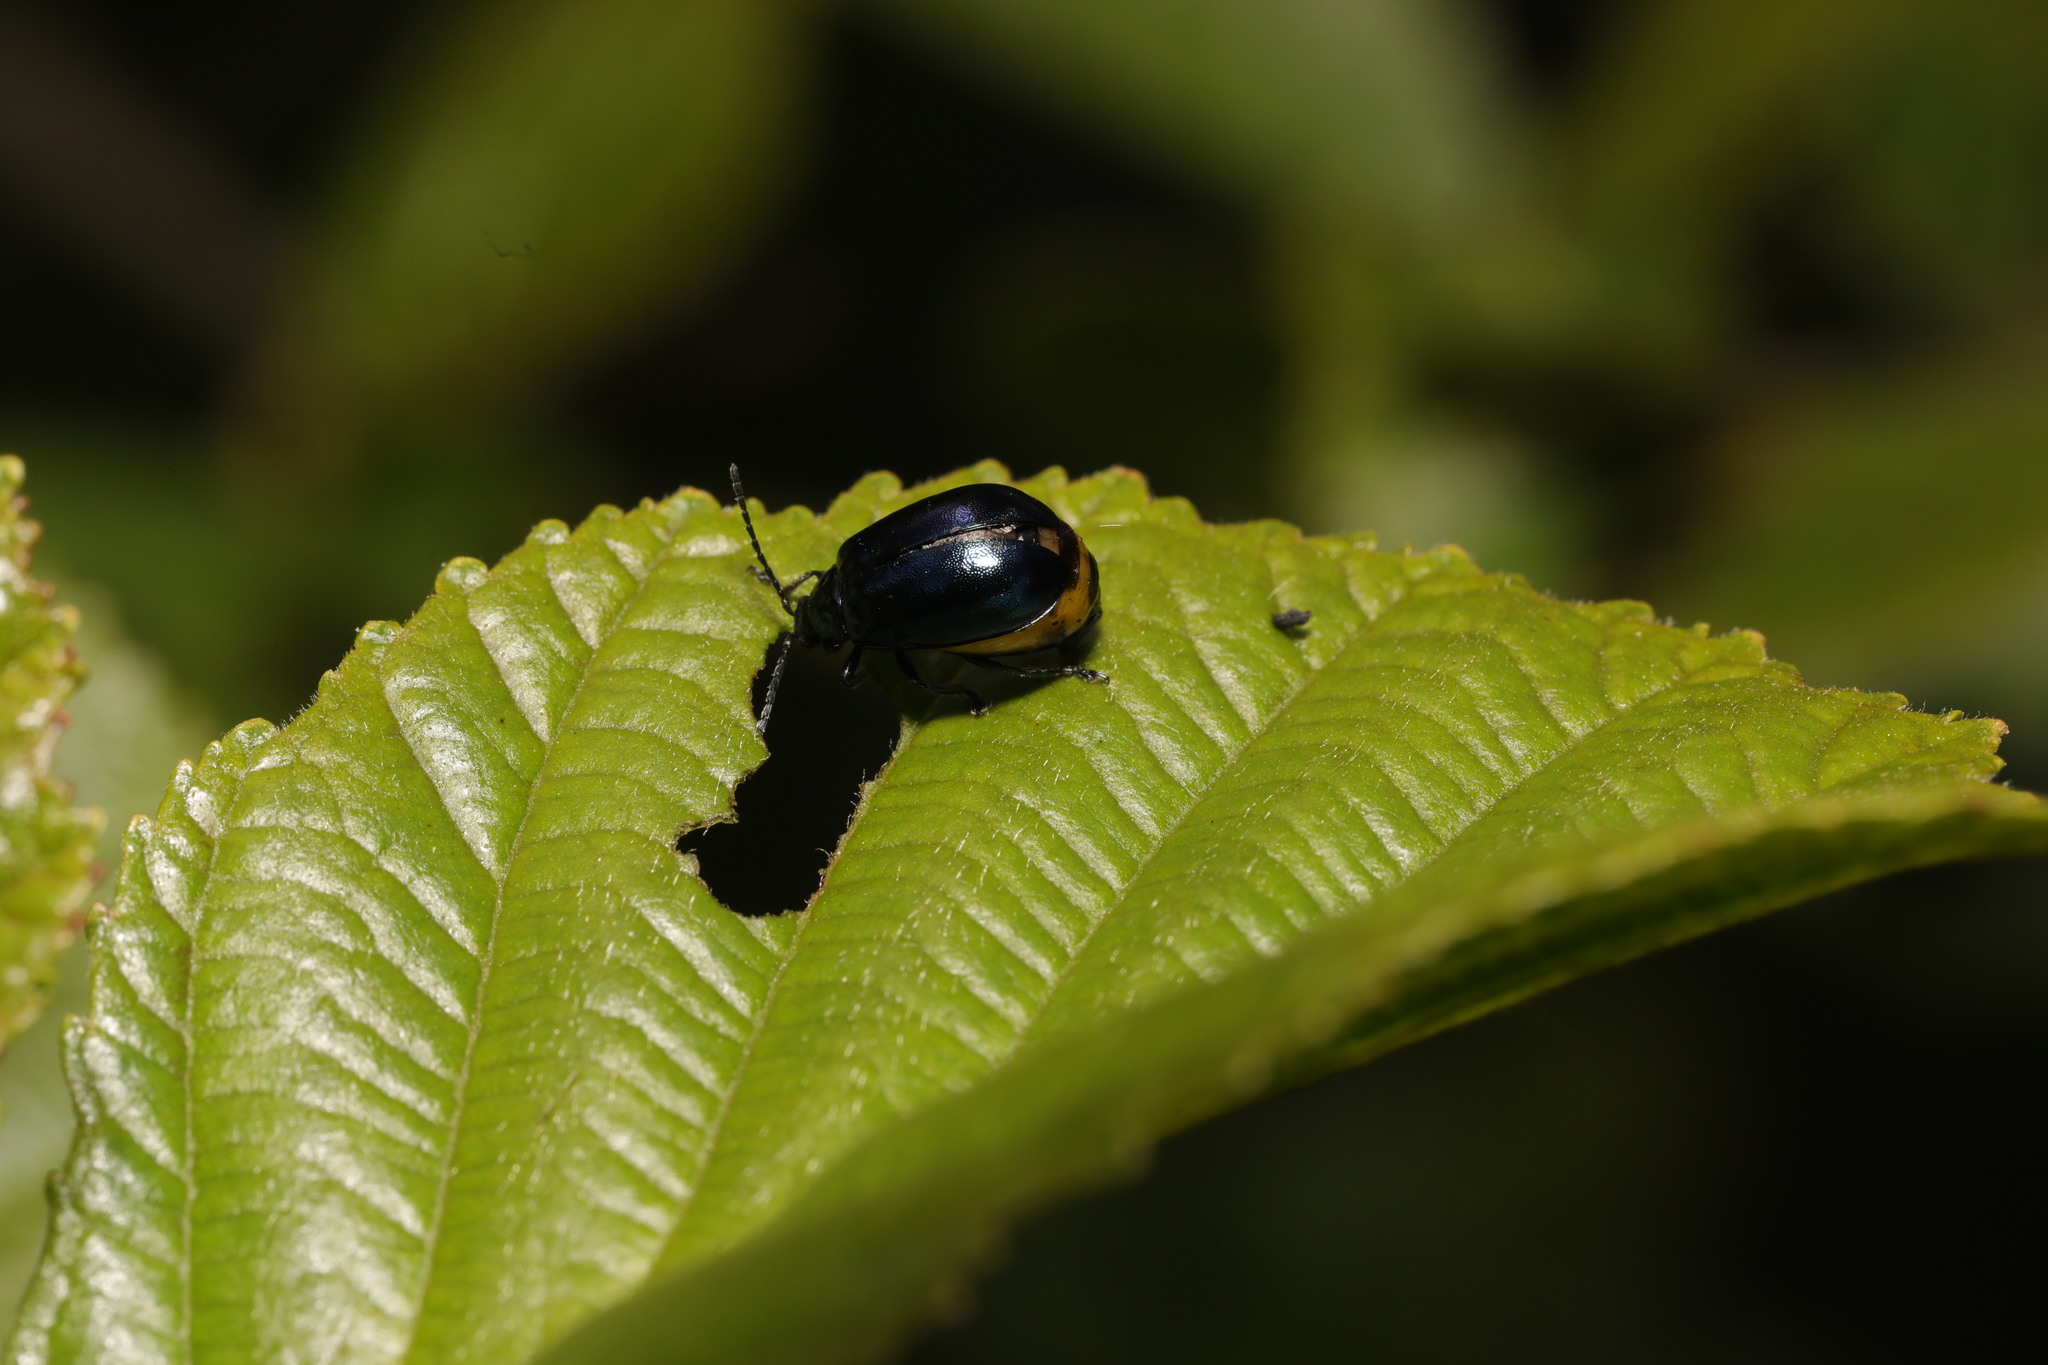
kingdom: Animalia
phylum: Arthropoda
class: Insecta
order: Coleoptera
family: Chrysomelidae
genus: Agelastica
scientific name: Agelastica alni
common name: Alder leaf beetle
